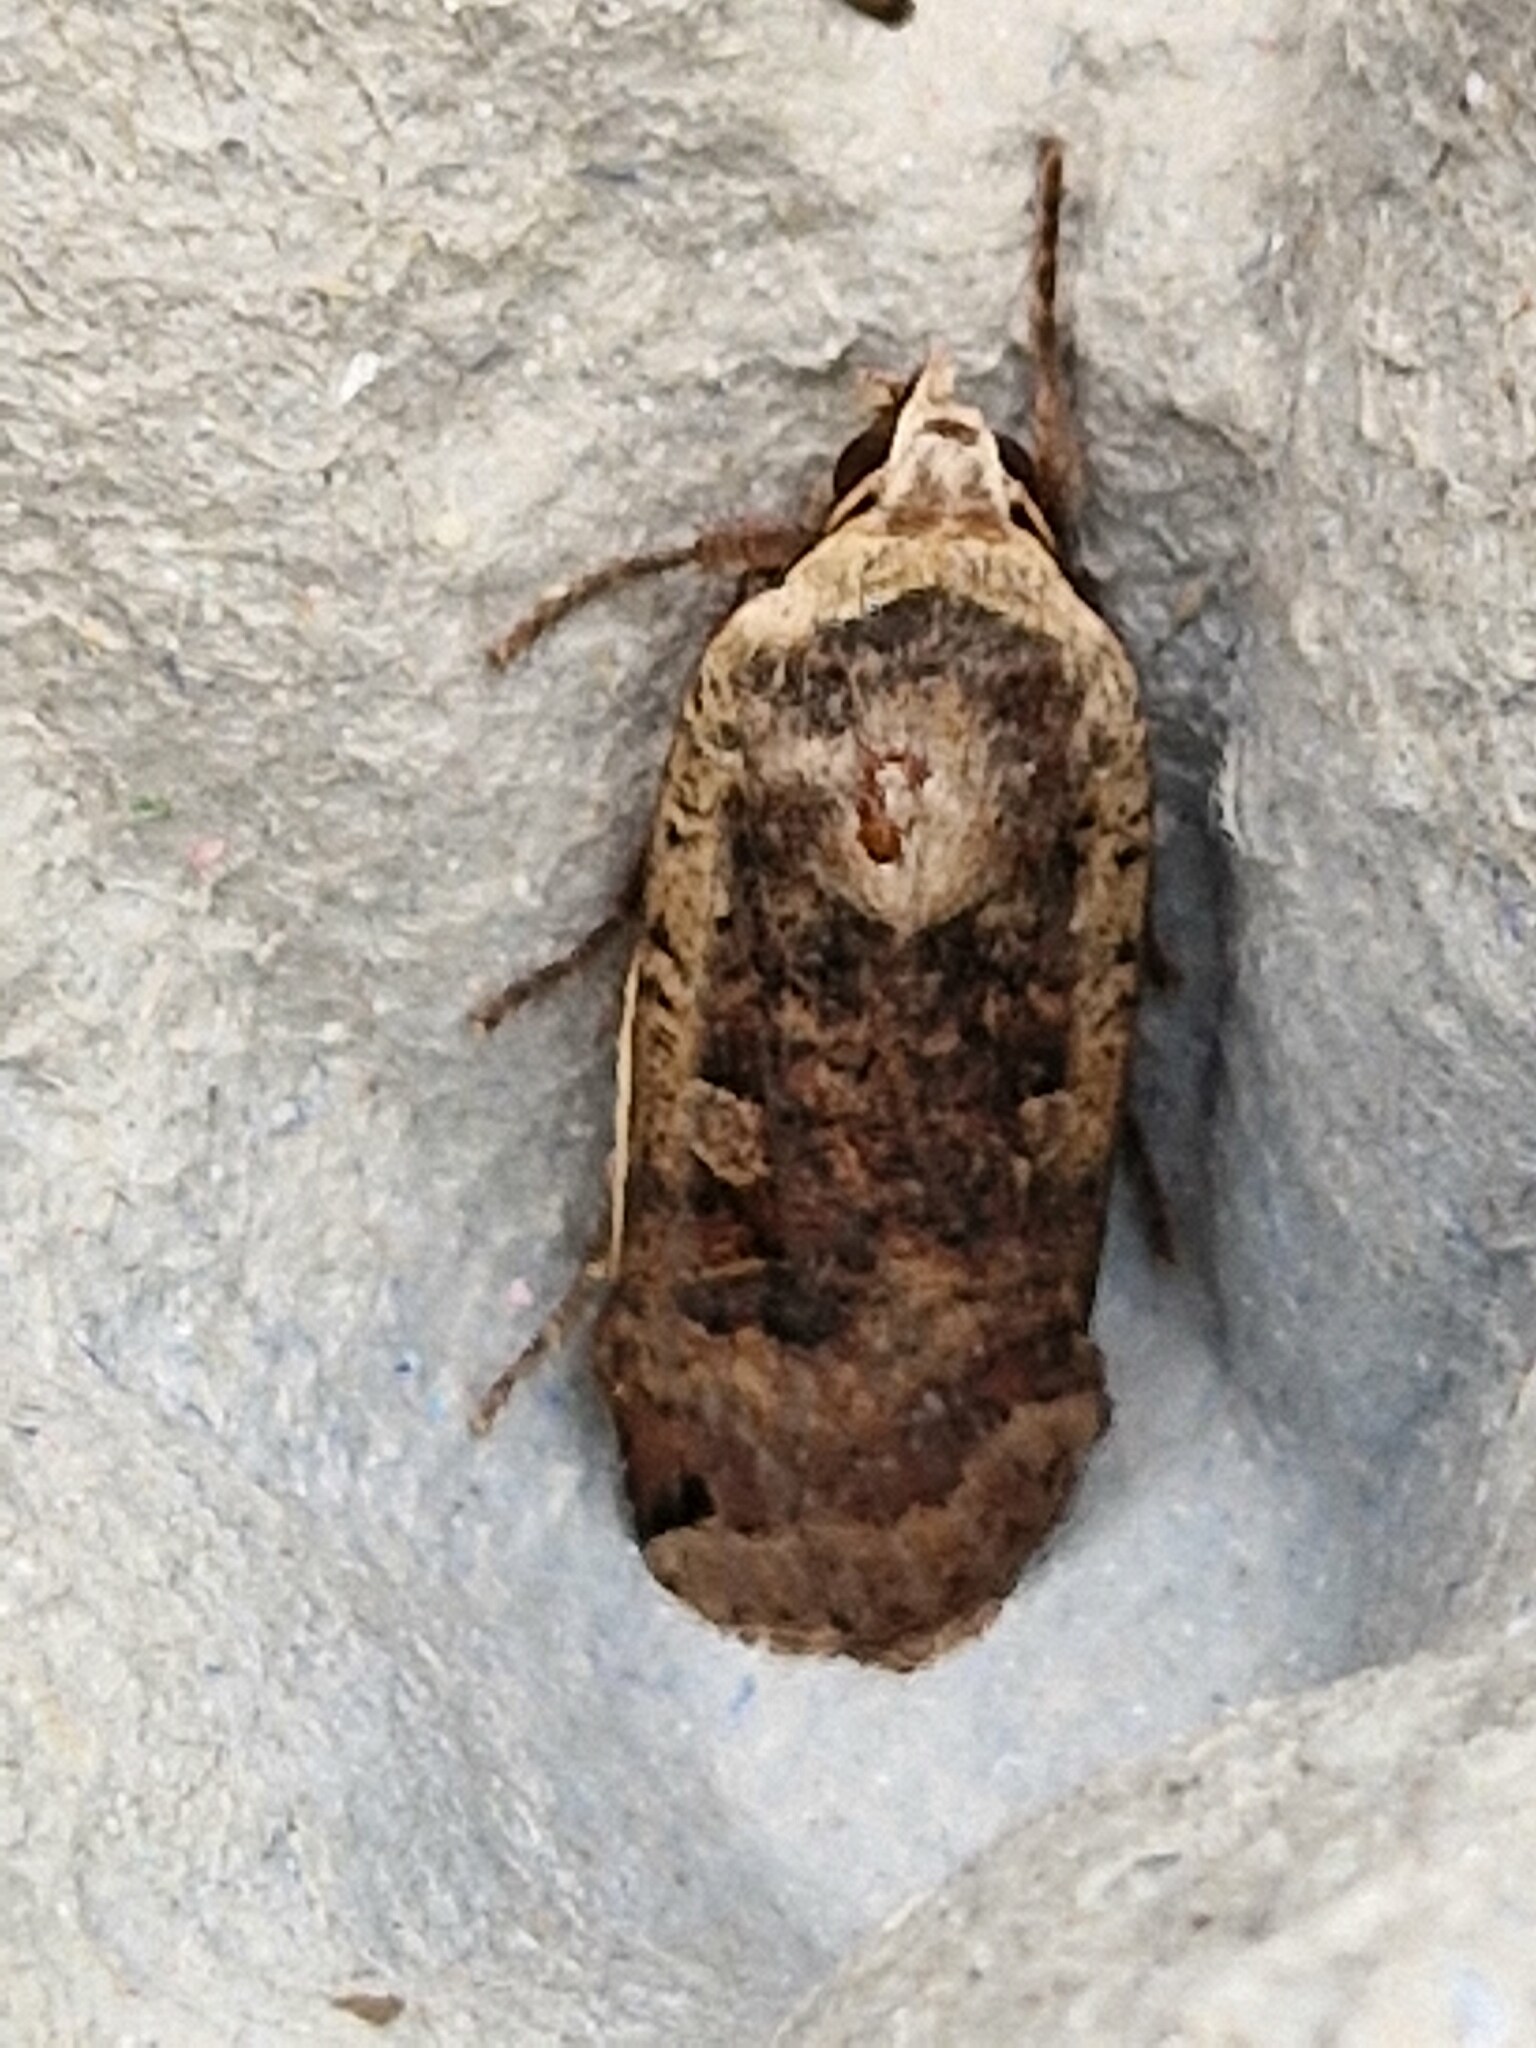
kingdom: Animalia
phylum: Arthropoda
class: Insecta
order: Lepidoptera
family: Noctuidae
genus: Noctua
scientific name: Noctua pronuba
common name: Large yellow underwing
